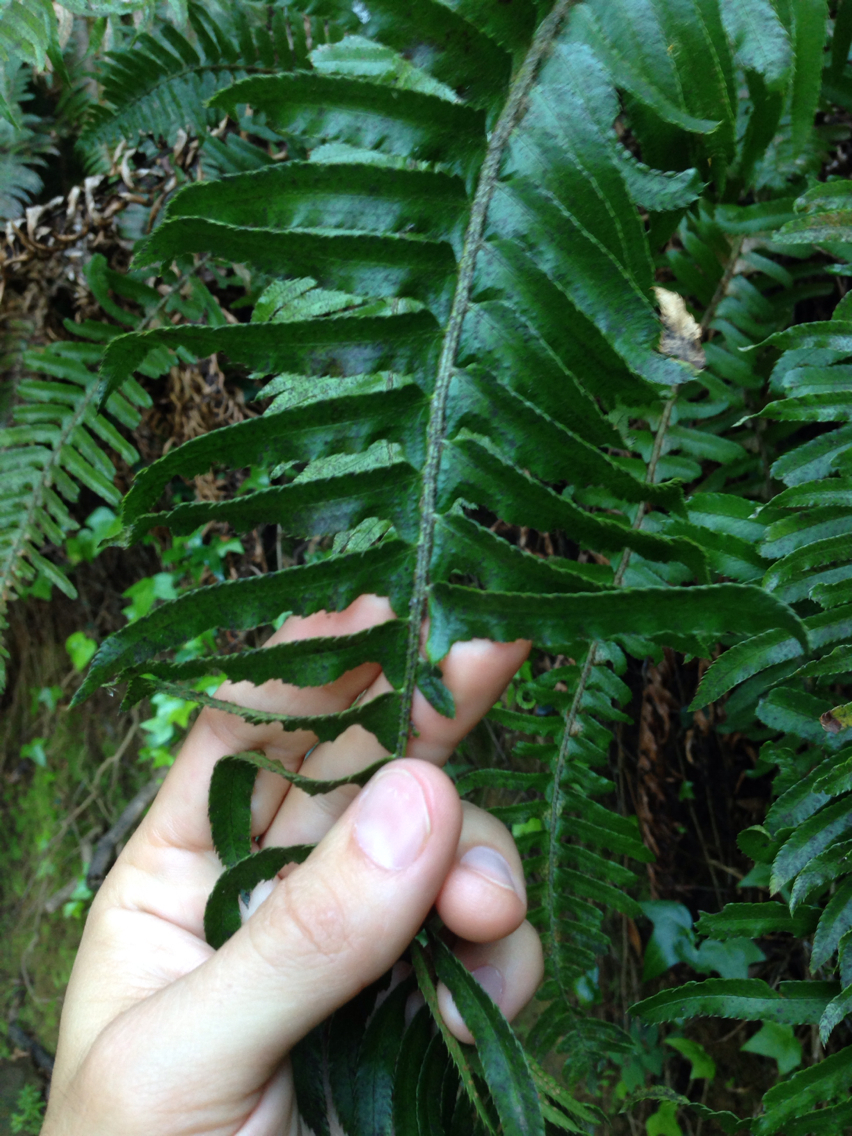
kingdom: Plantae
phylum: Tracheophyta
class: Polypodiopsida
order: Polypodiales
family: Dryopteridaceae
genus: Polystichum
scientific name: Polystichum munitum
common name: Western sword-fern
